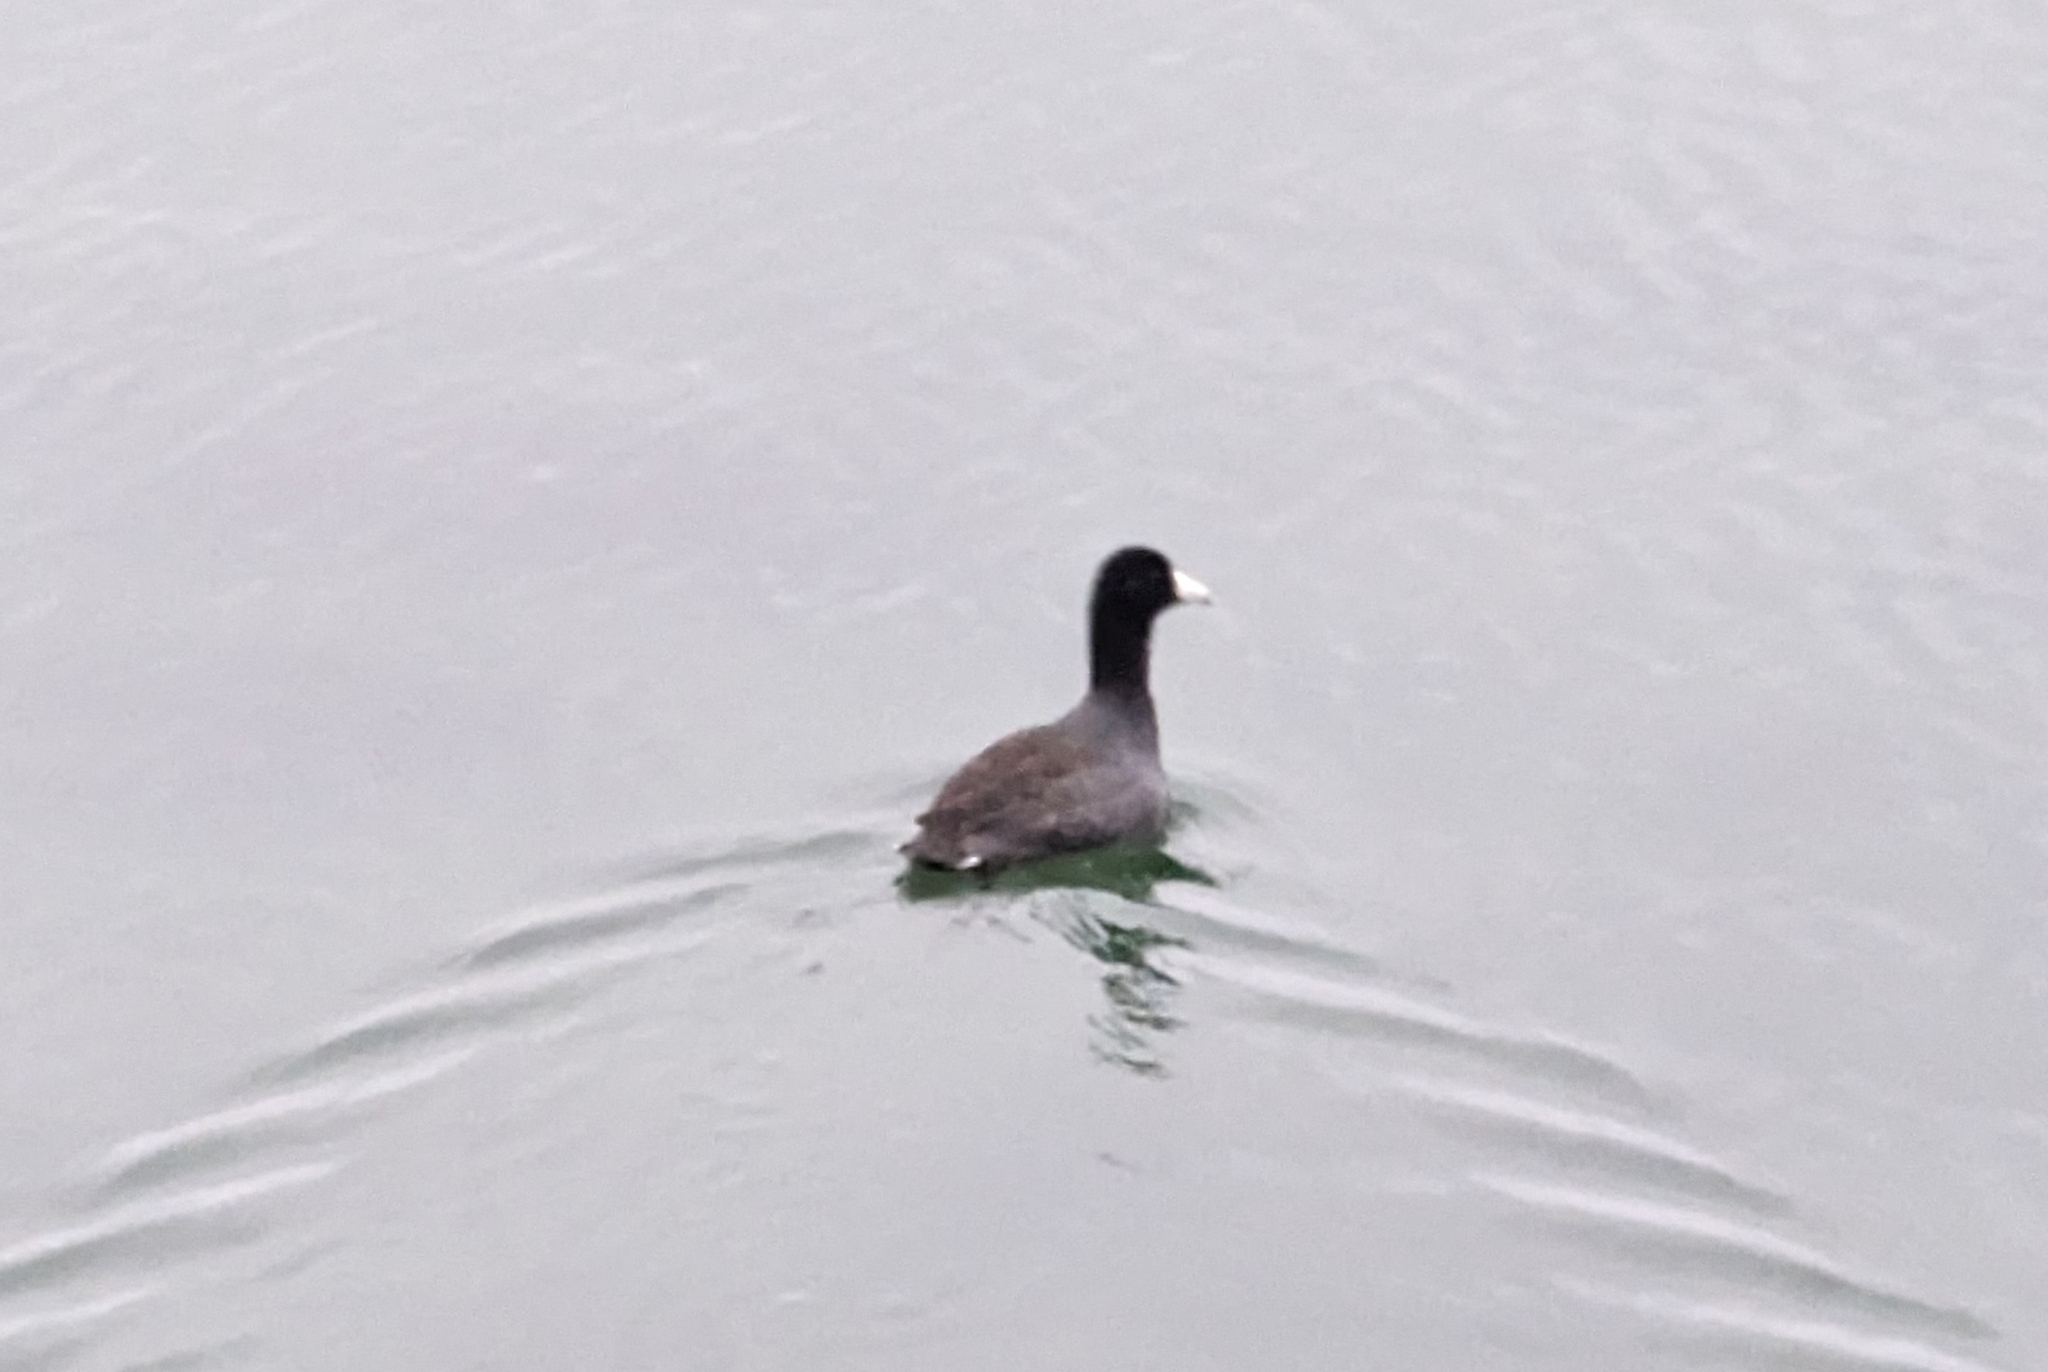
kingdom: Animalia
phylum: Chordata
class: Aves
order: Gruiformes
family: Rallidae
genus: Fulica
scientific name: Fulica americana
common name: American coot
